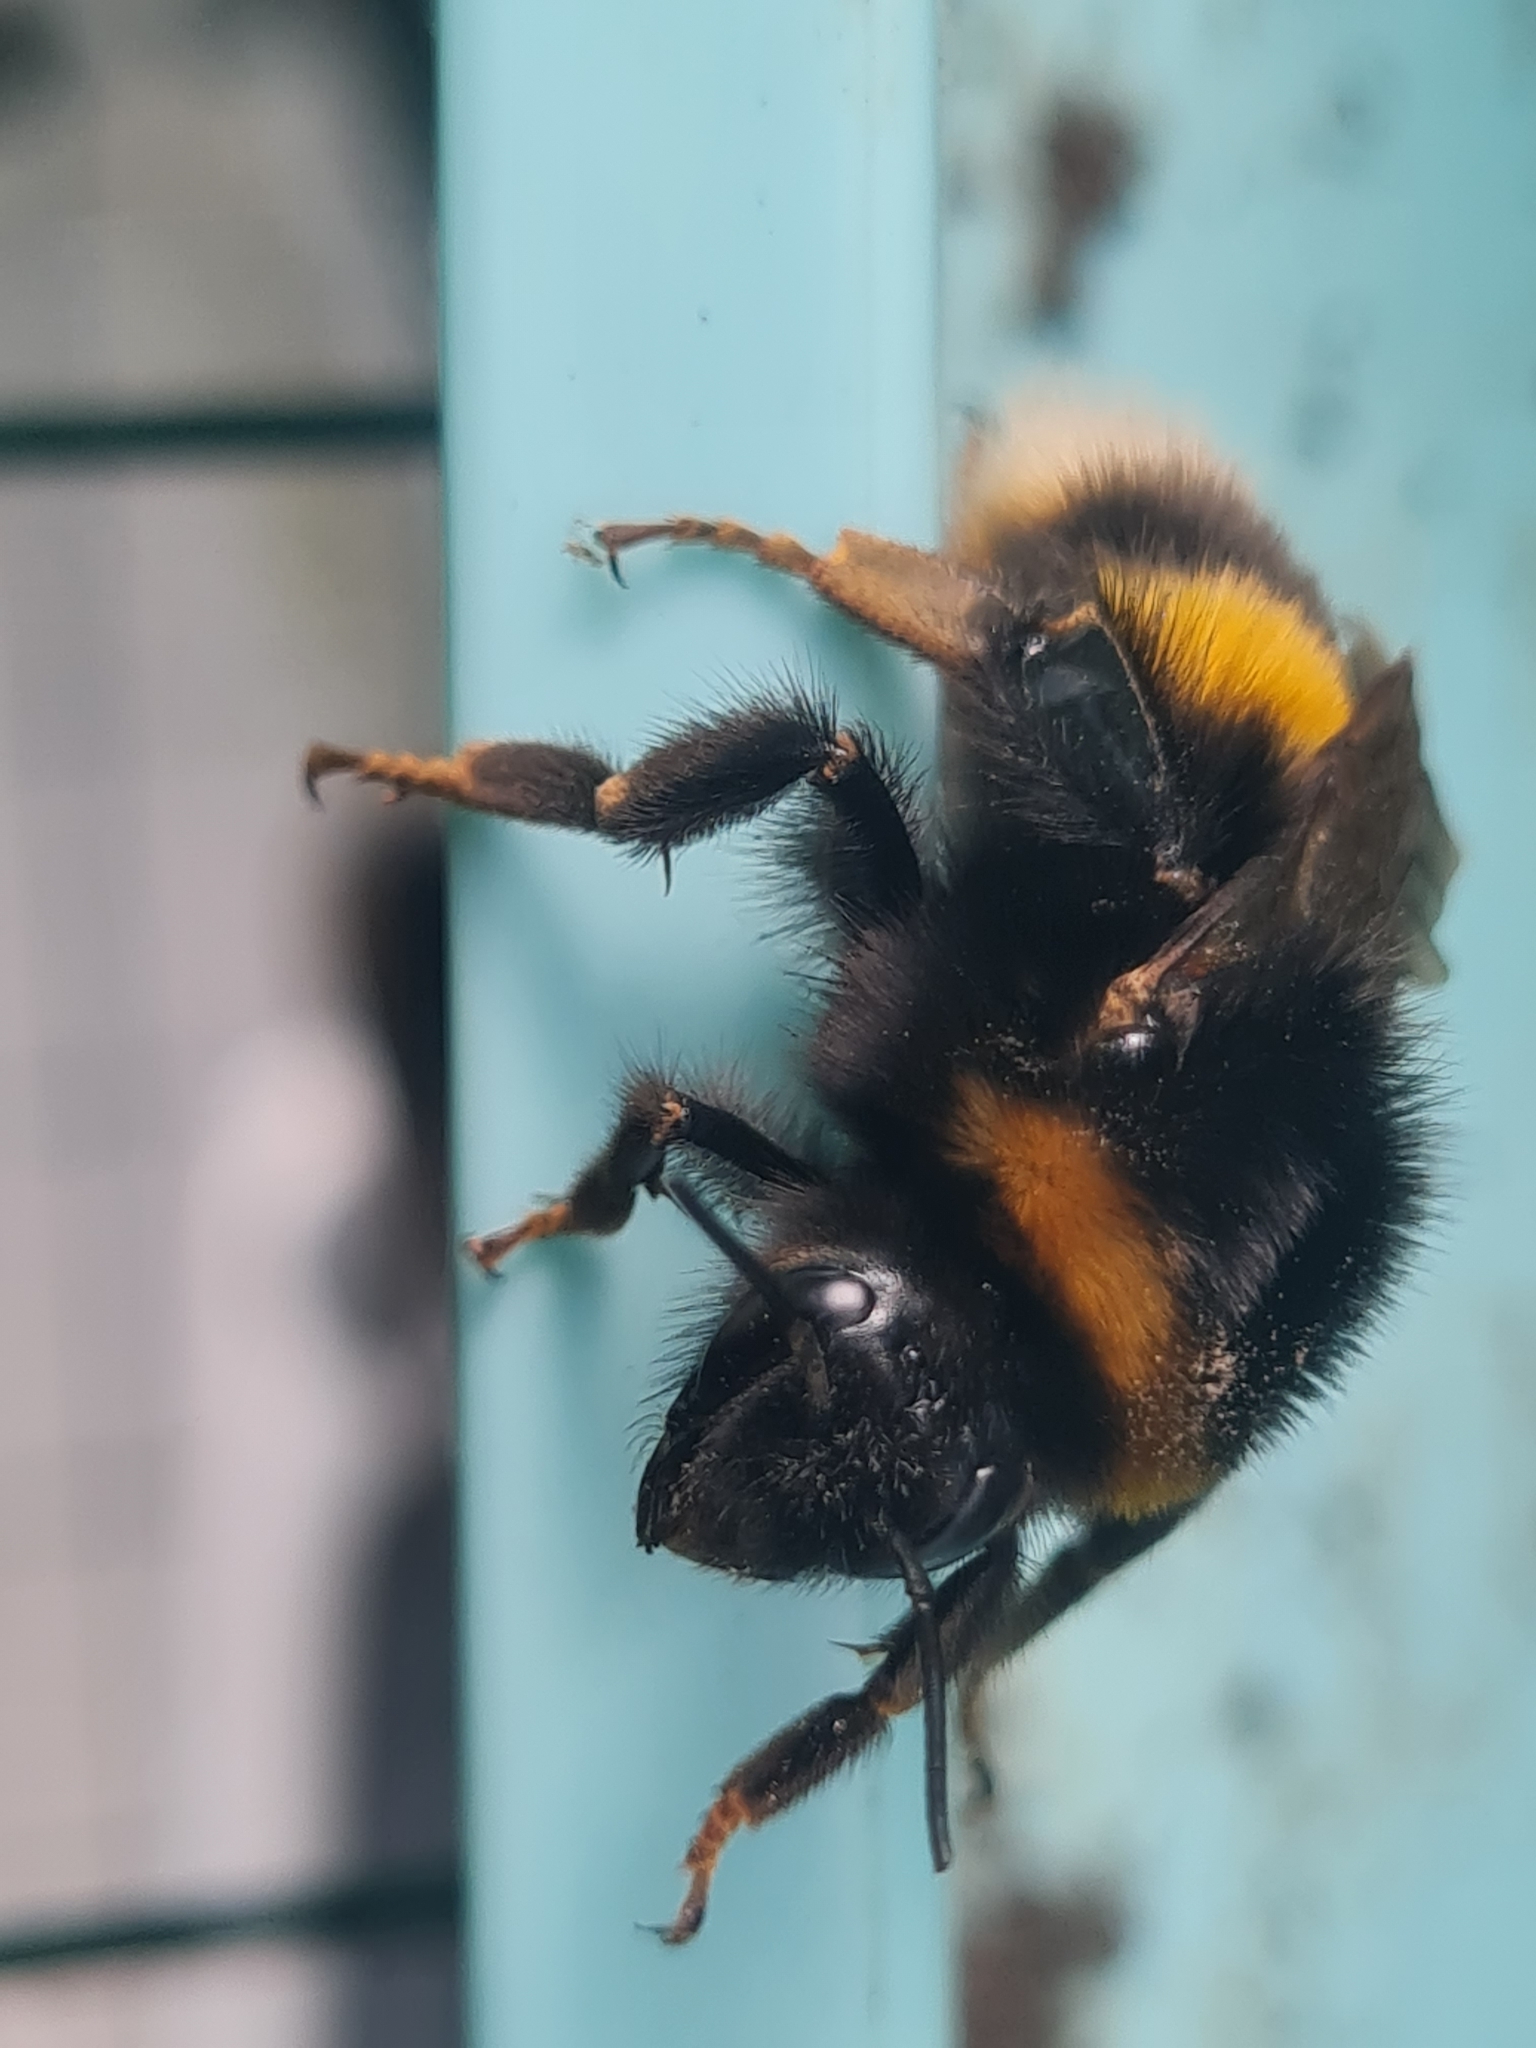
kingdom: Animalia
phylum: Arthropoda
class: Insecta
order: Hymenoptera
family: Apidae
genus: Bombus
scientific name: Bombus terrestris
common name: Buff-tailed bumblebee
